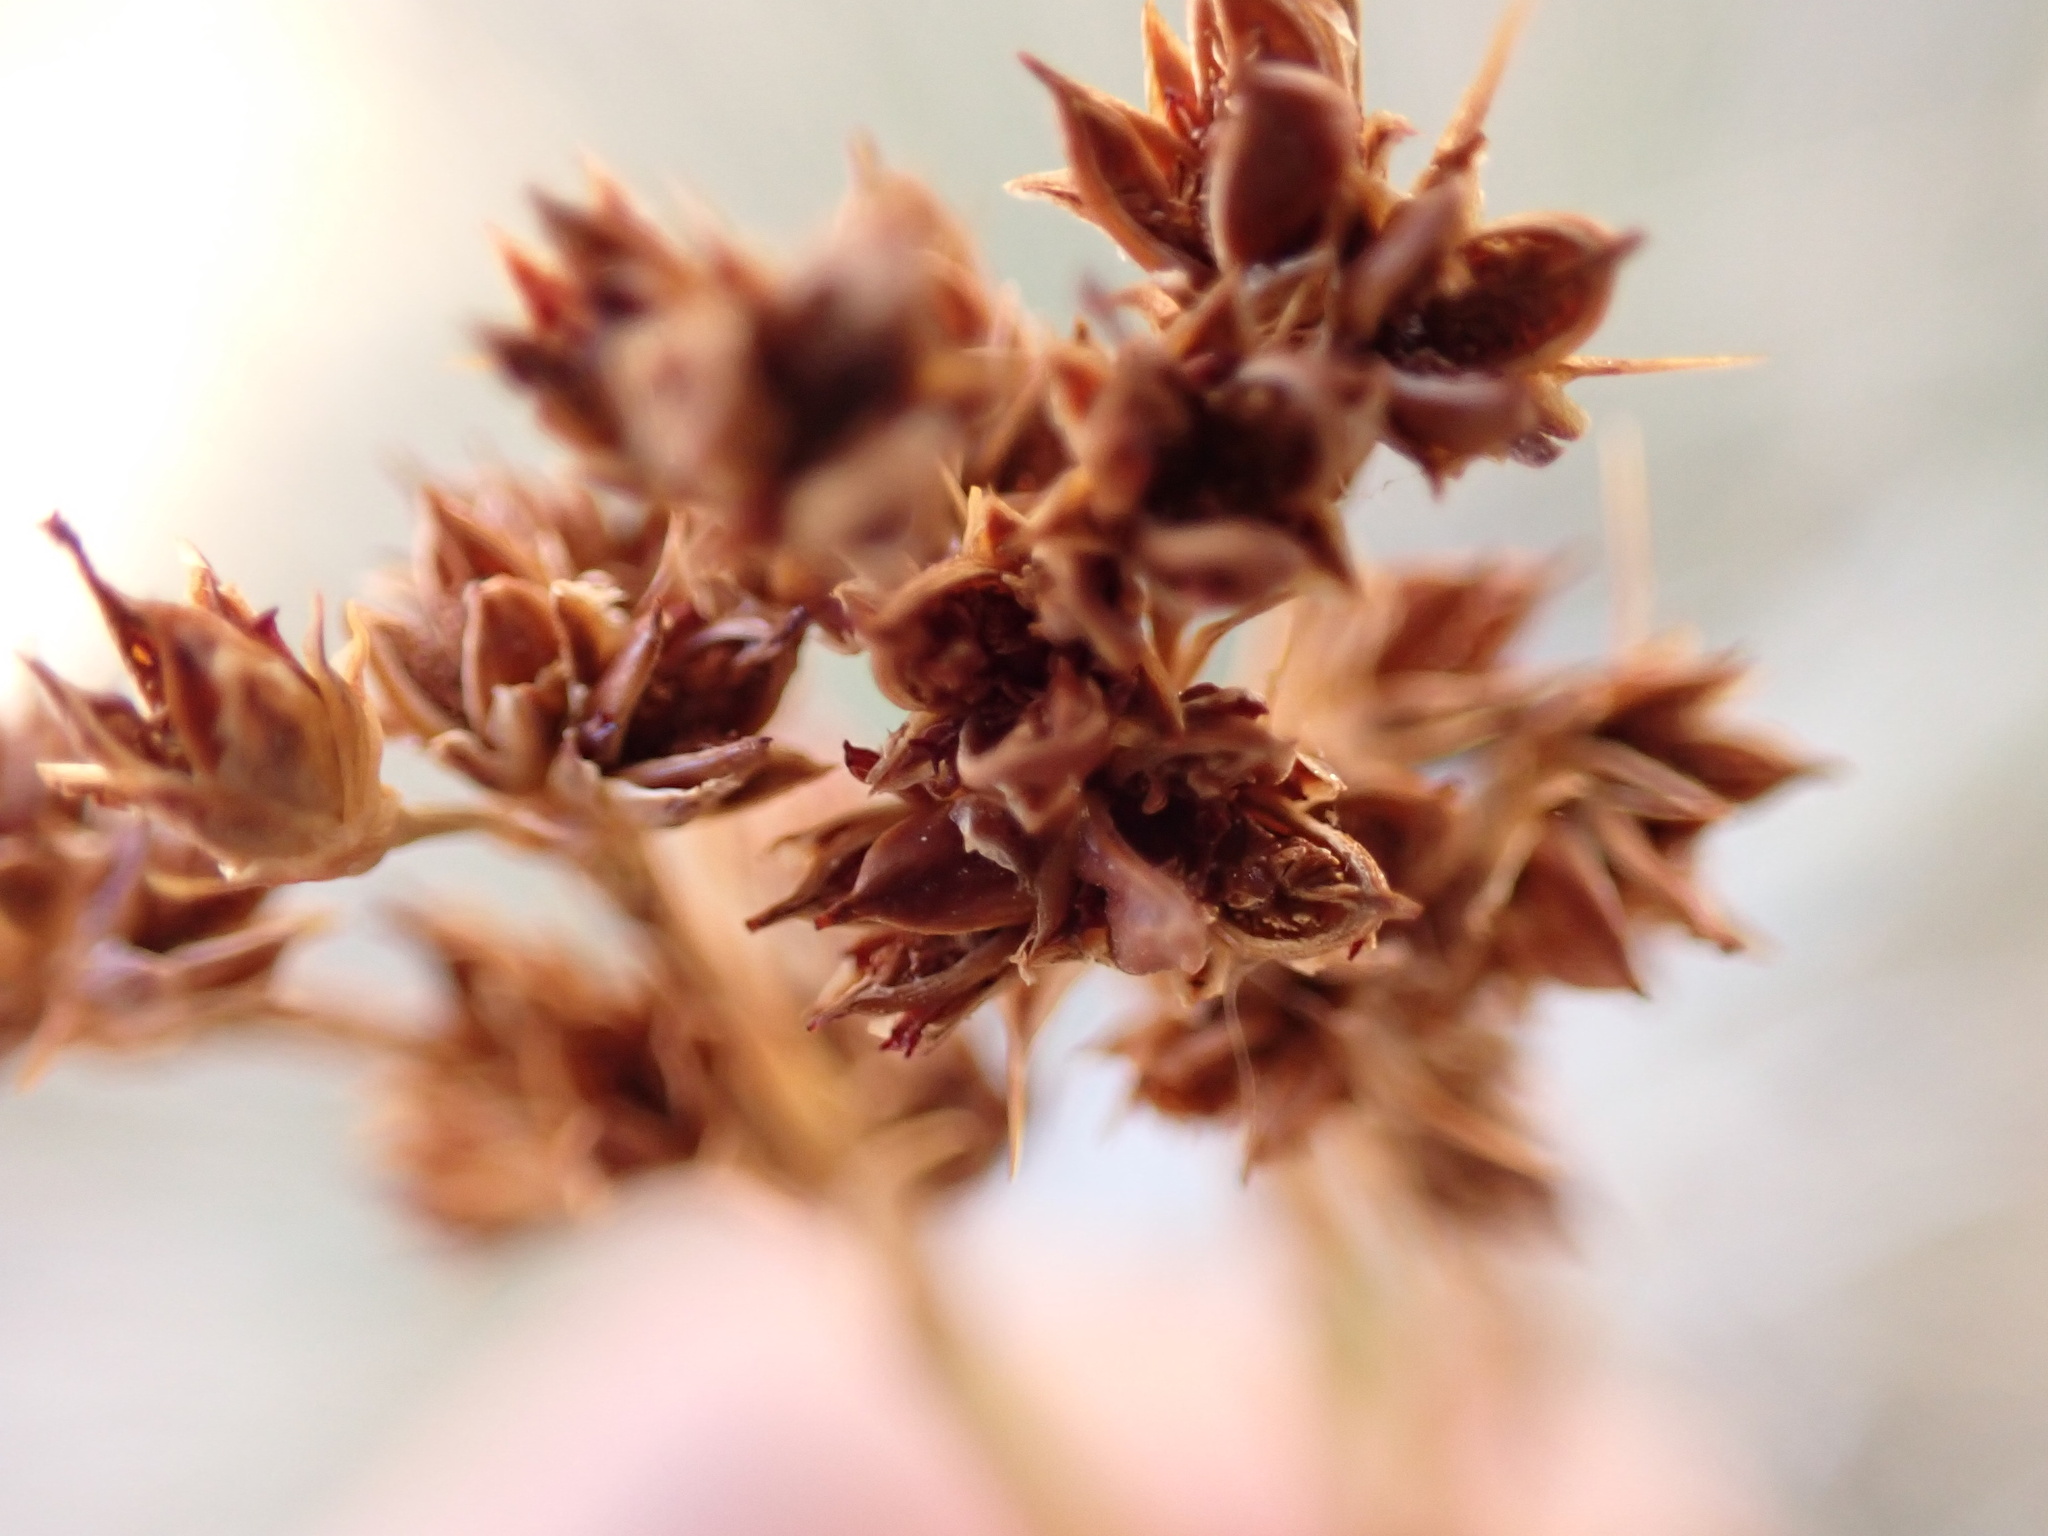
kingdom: Plantae
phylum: Tracheophyta
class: Liliopsida
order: Poales
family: Juncaceae
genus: Juncus
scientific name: Juncus acutus
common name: Sharp rush
